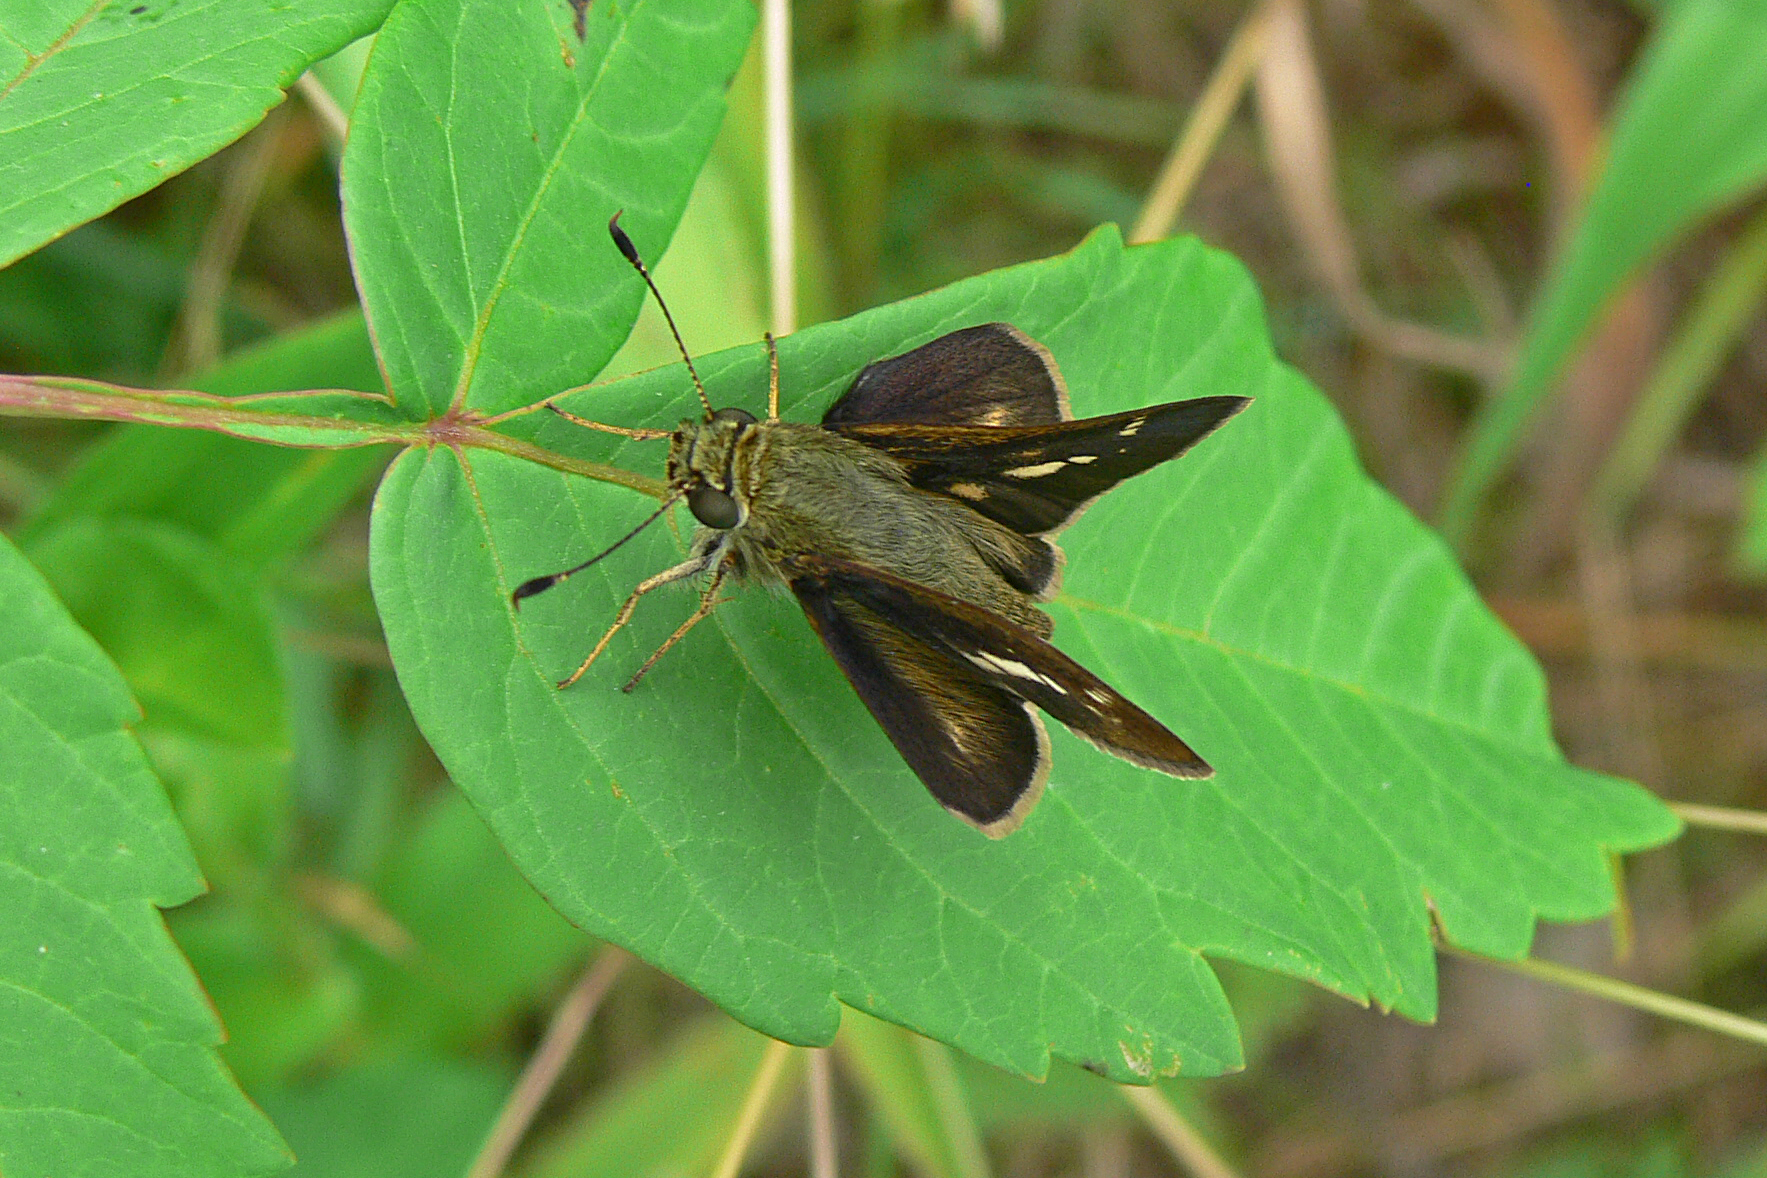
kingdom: Animalia
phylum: Arthropoda
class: Insecta
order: Lepidoptera
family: Hesperiidae
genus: Vernia
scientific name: Vernia verna
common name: Little glassywing
